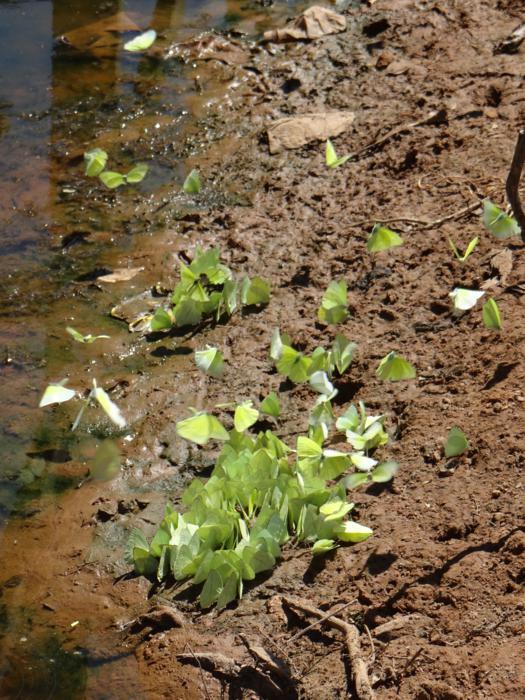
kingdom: Animalia
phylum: Arthropoda
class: Insecta
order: Lepidoptera
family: Pieridae
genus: Aphrissa
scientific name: Aphrissa statira
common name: Statira sulphur
